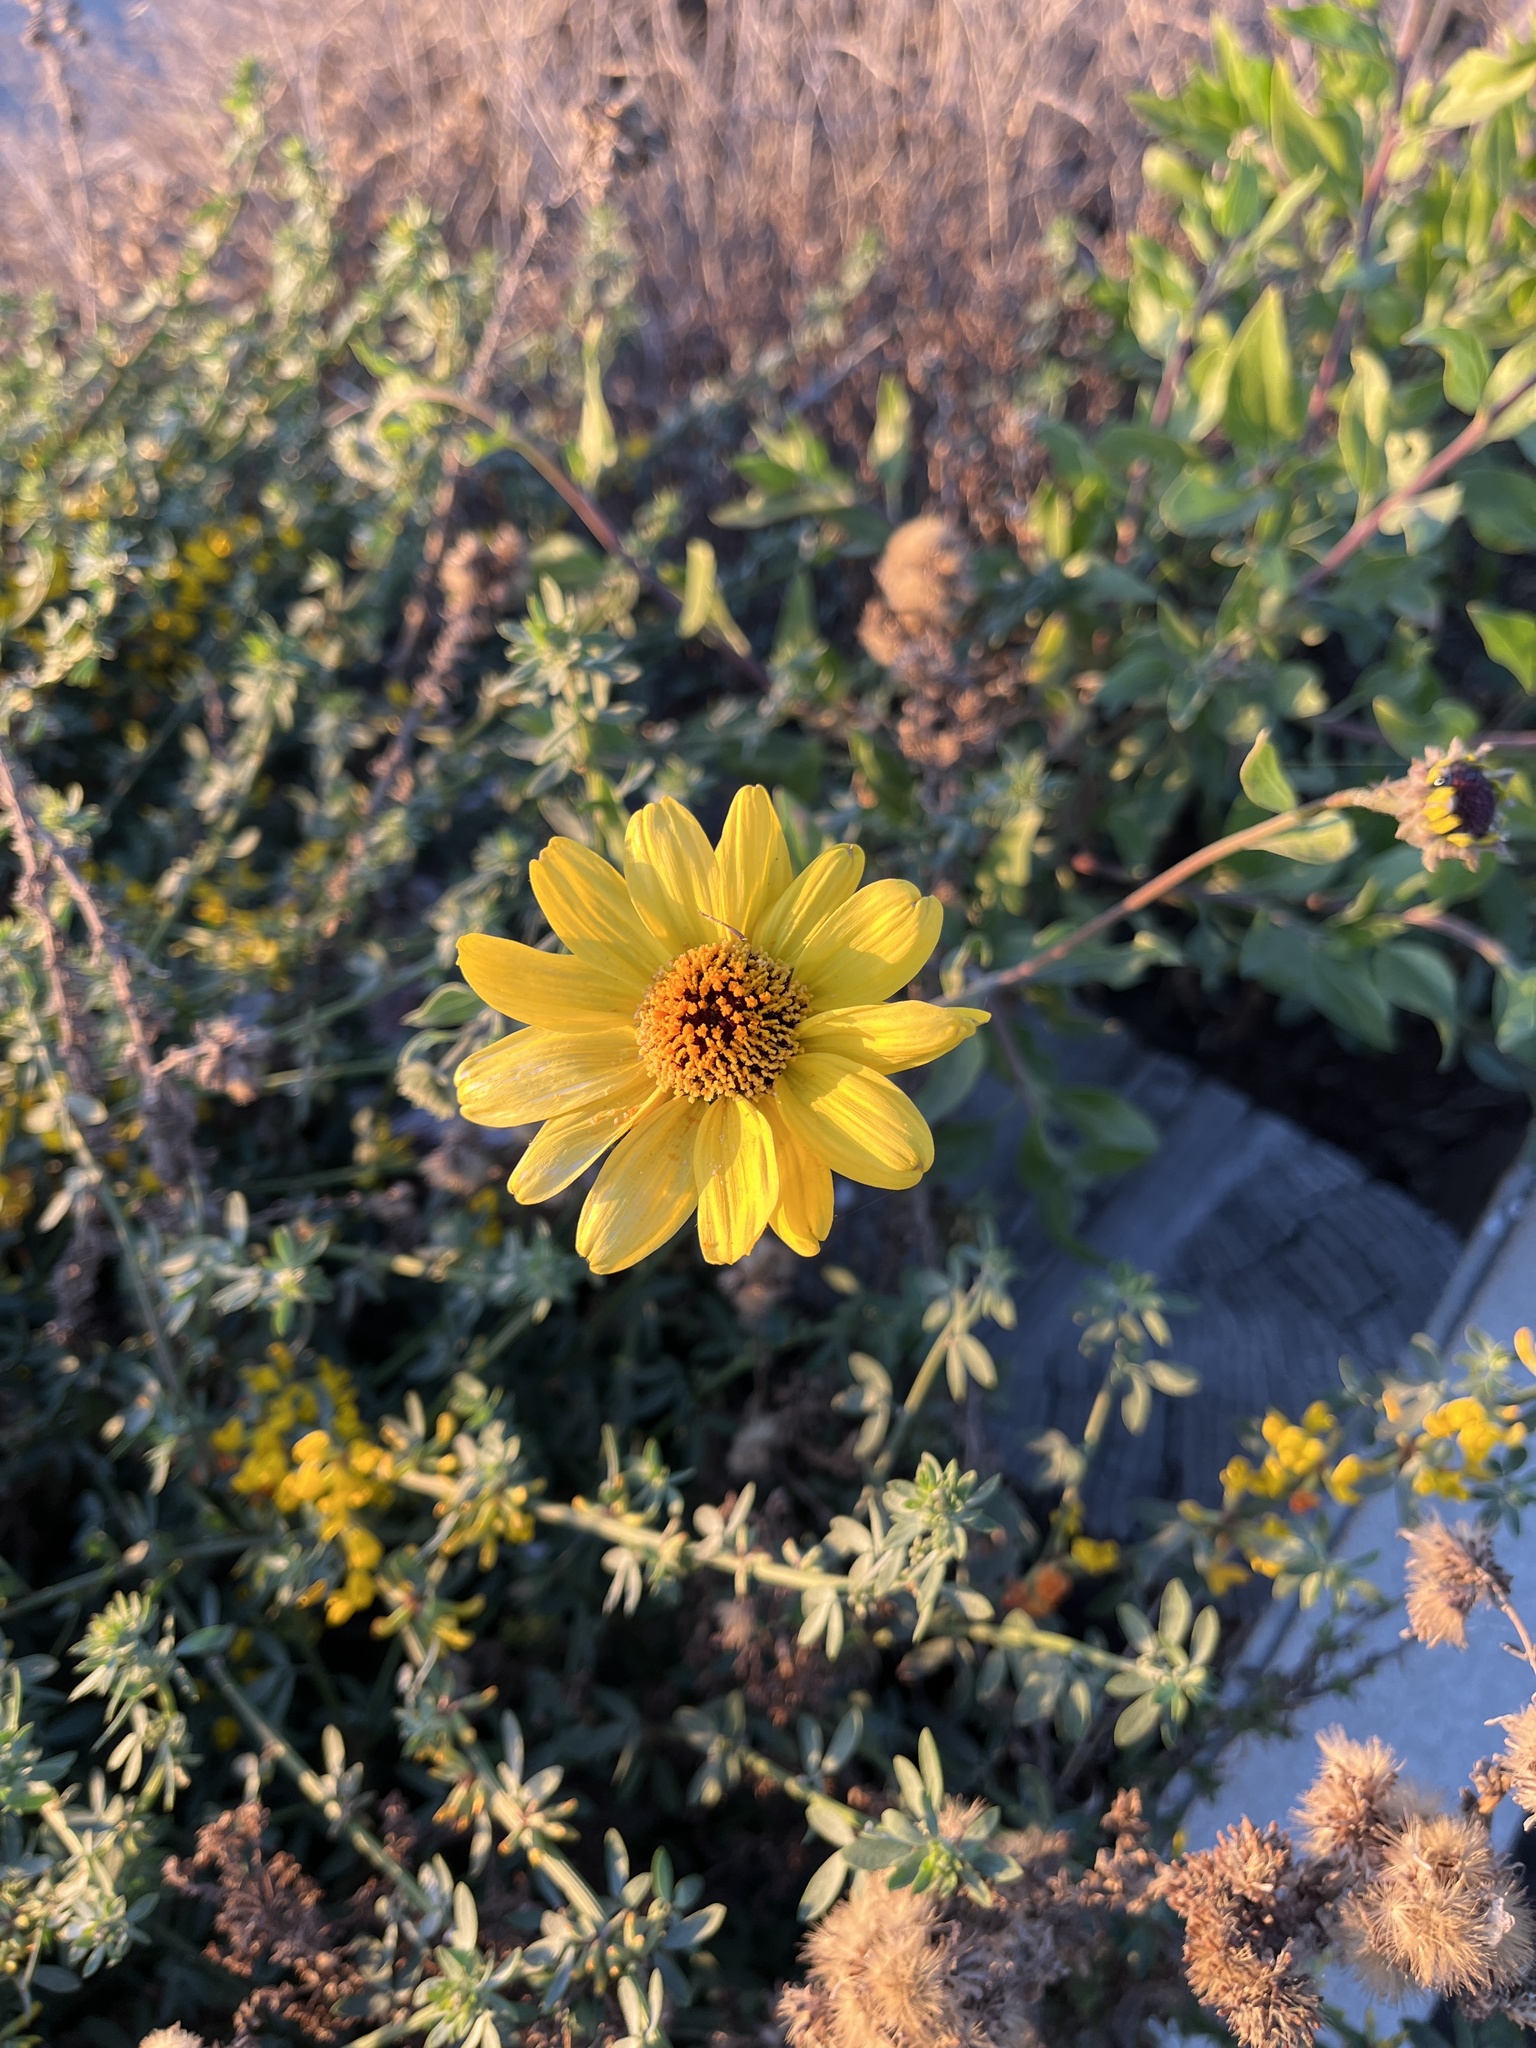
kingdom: Plantae
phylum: Tracheophyta
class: Magnoliopsida
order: Asterales
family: Asteraceae
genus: Encelia
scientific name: Encelia californica
